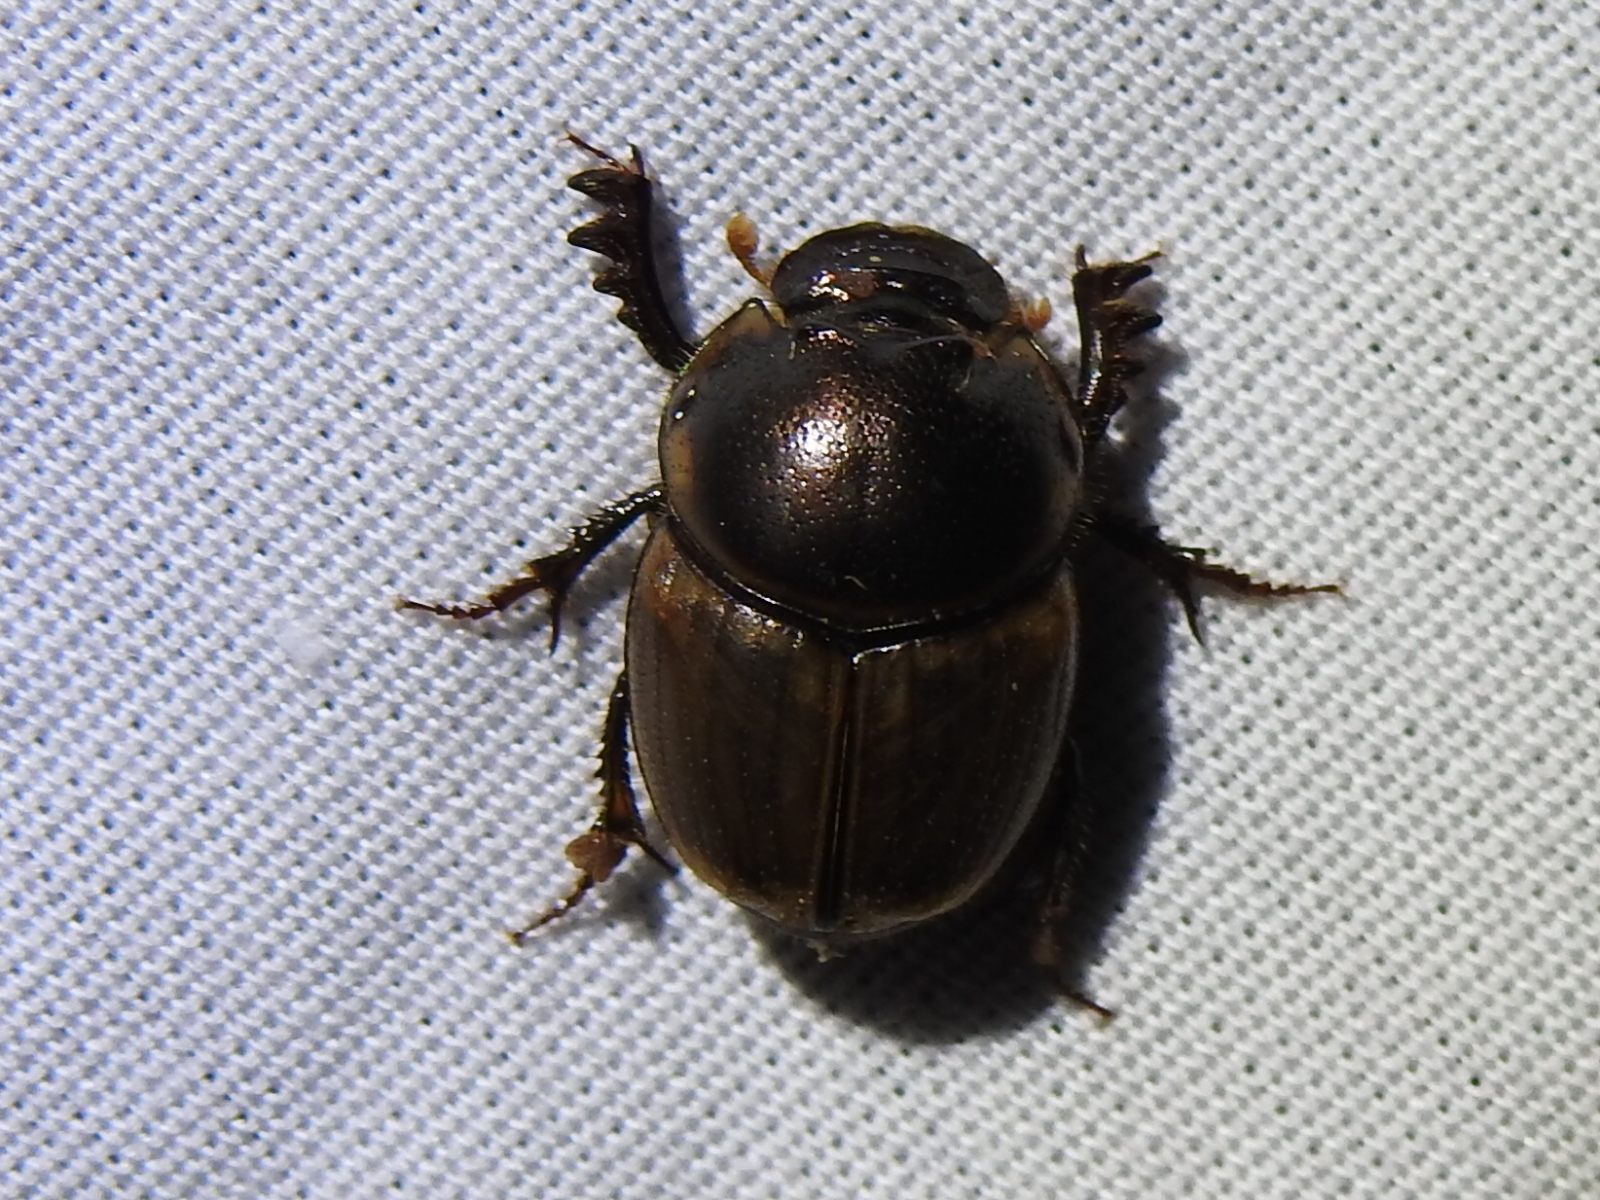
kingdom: Animalia
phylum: Arthropoda
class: Insecta
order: Coleoptera
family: Scarabaeidae
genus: Digitonthophagus
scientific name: Digitonthophagus gazella
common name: Brown dung beetle
